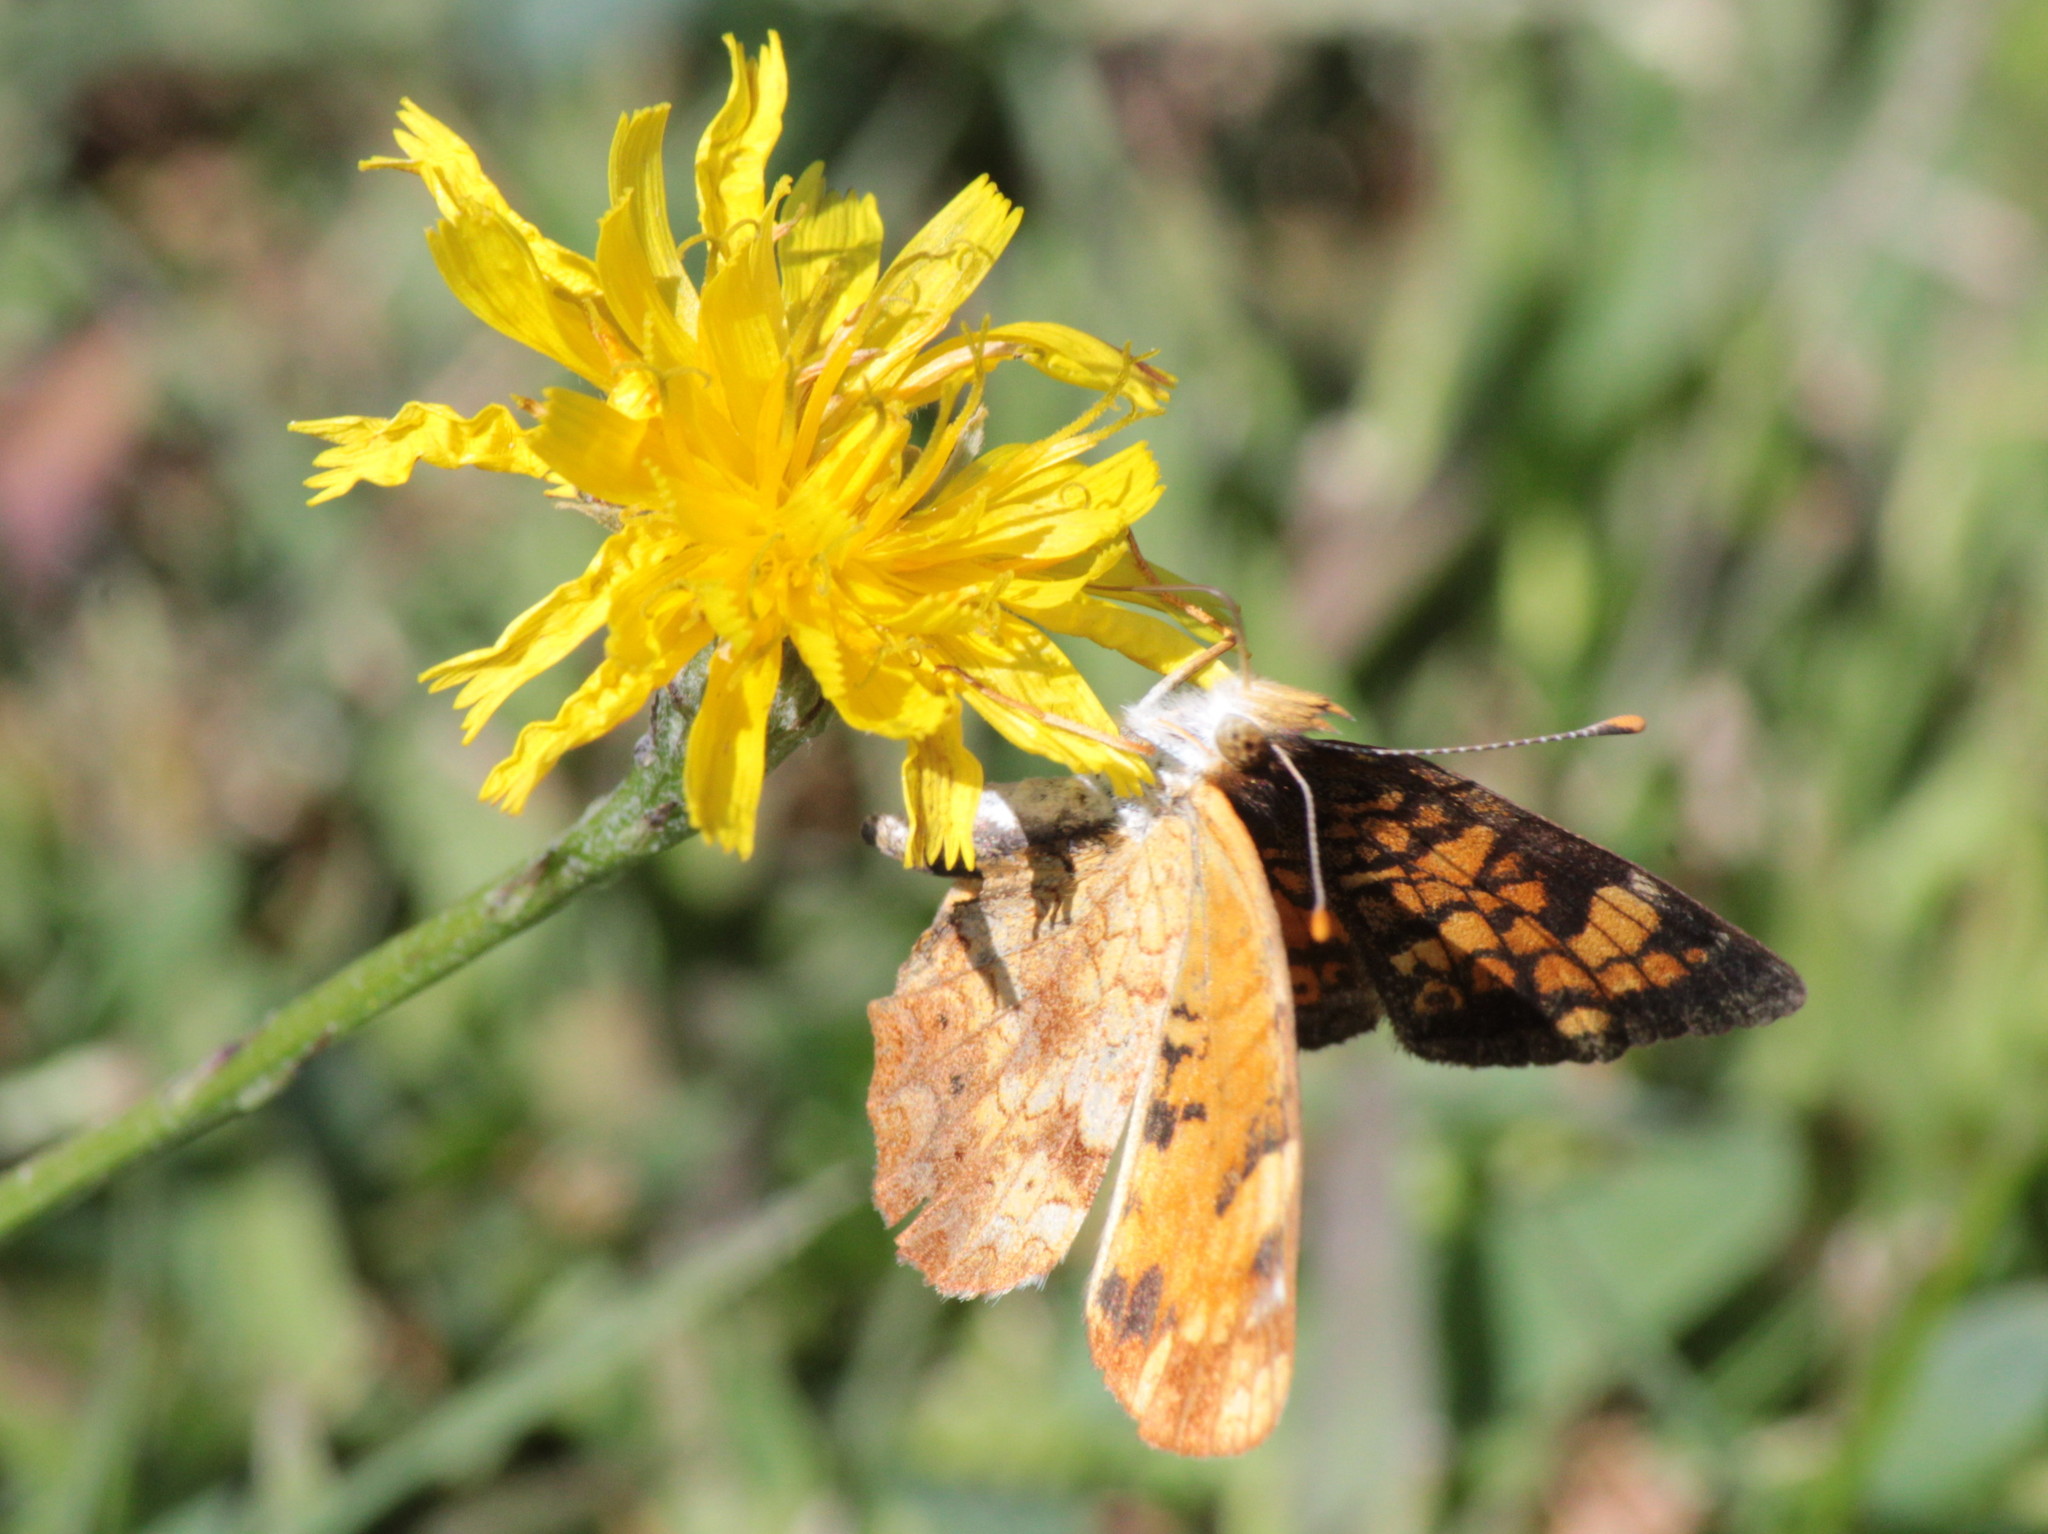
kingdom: Animalia
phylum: Arthropoda
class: Insecta
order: Lepidoptera
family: Nymphalidae
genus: Phyciodes
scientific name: Phyciodes tharos
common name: Pearl crescent
